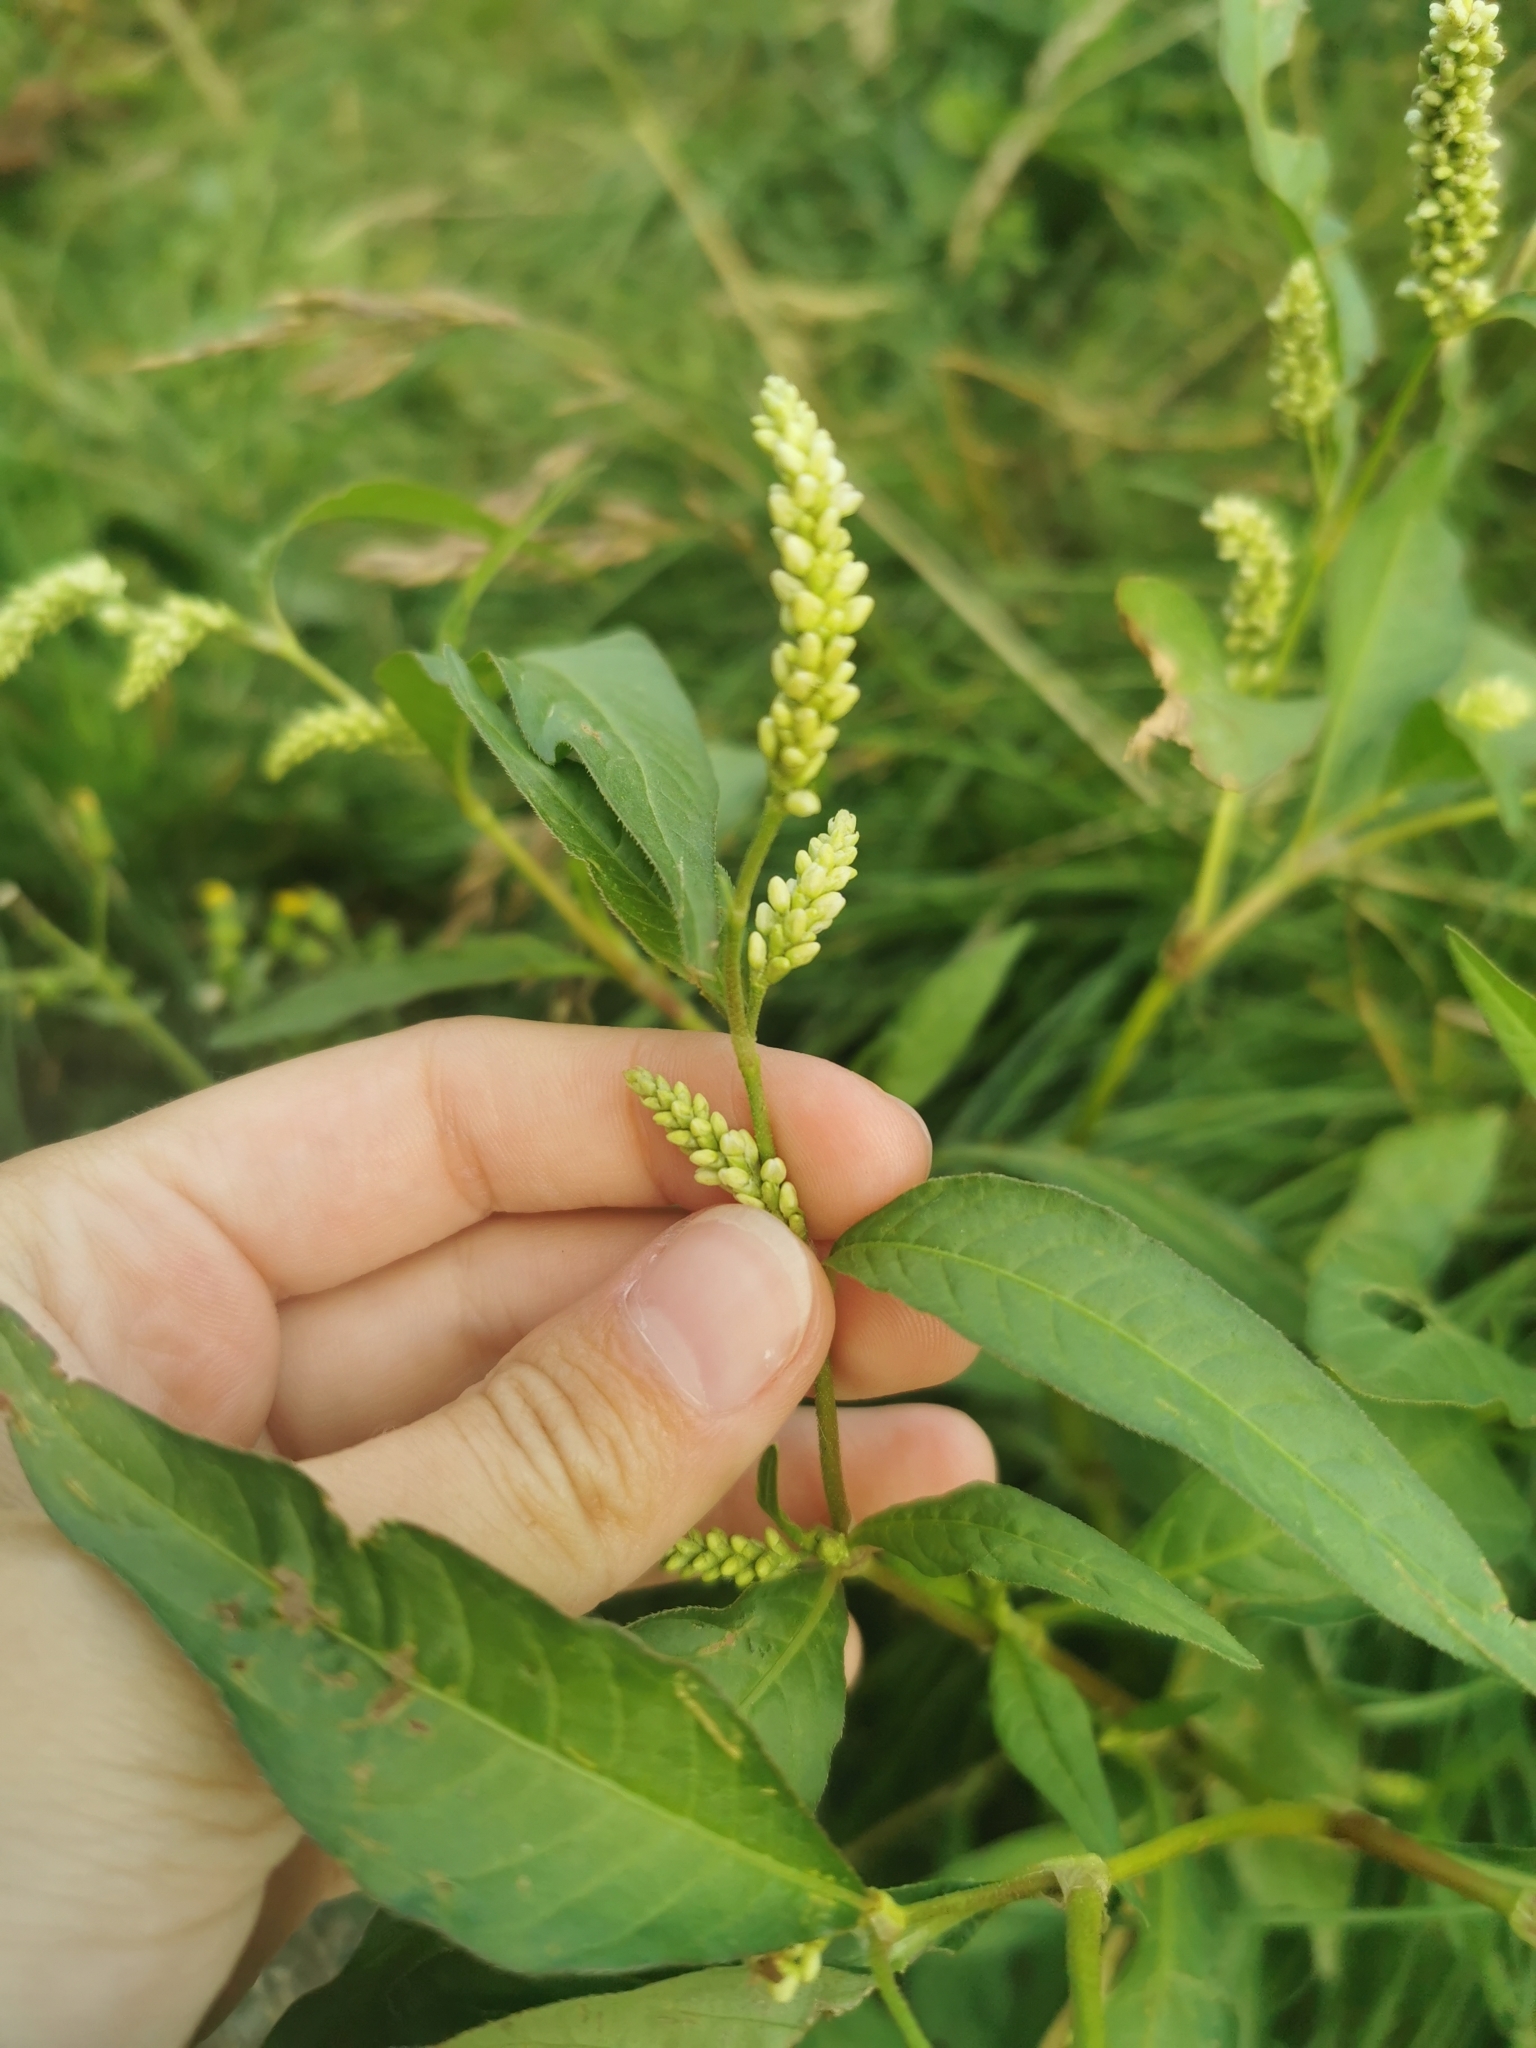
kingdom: Plantae
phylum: Tracheophyta
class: Magnoliopsida
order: Caryophyllales
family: Polygonaceae
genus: Persicaria
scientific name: Persicaria lapathifolia
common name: Curlytop knotweed
